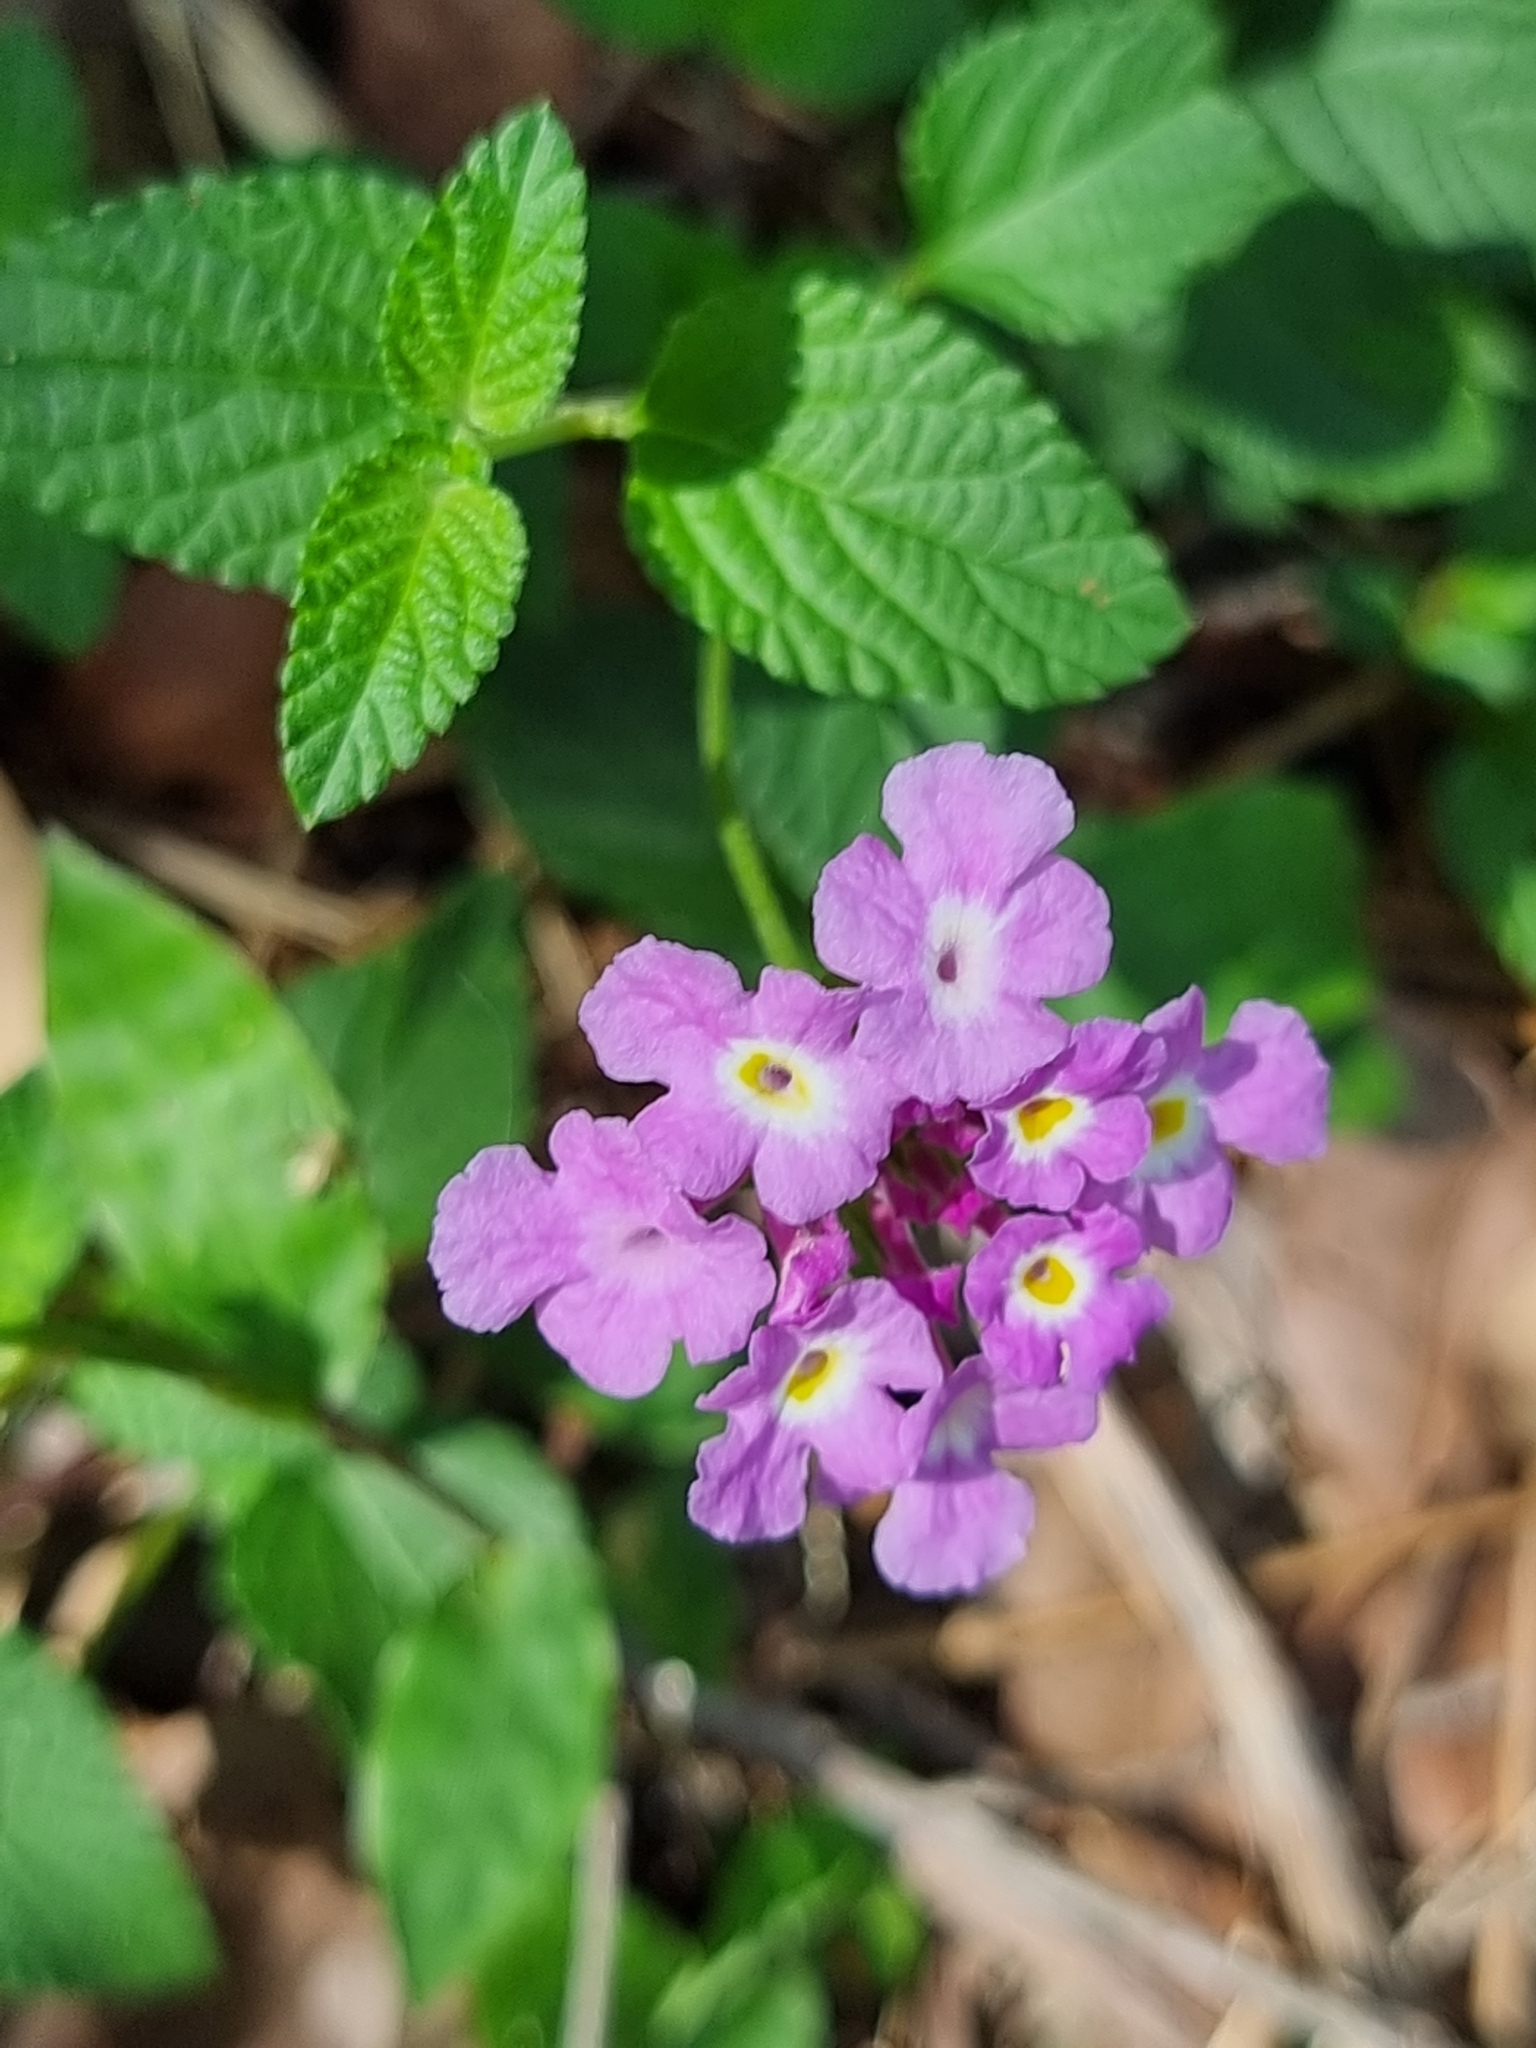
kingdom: Plantae
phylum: Tracheophyta
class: Magnoliopsida
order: Lamiales
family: Verbenaceae
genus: Lantana
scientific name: Lantana montevidensis
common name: Trailing shrubverbena
